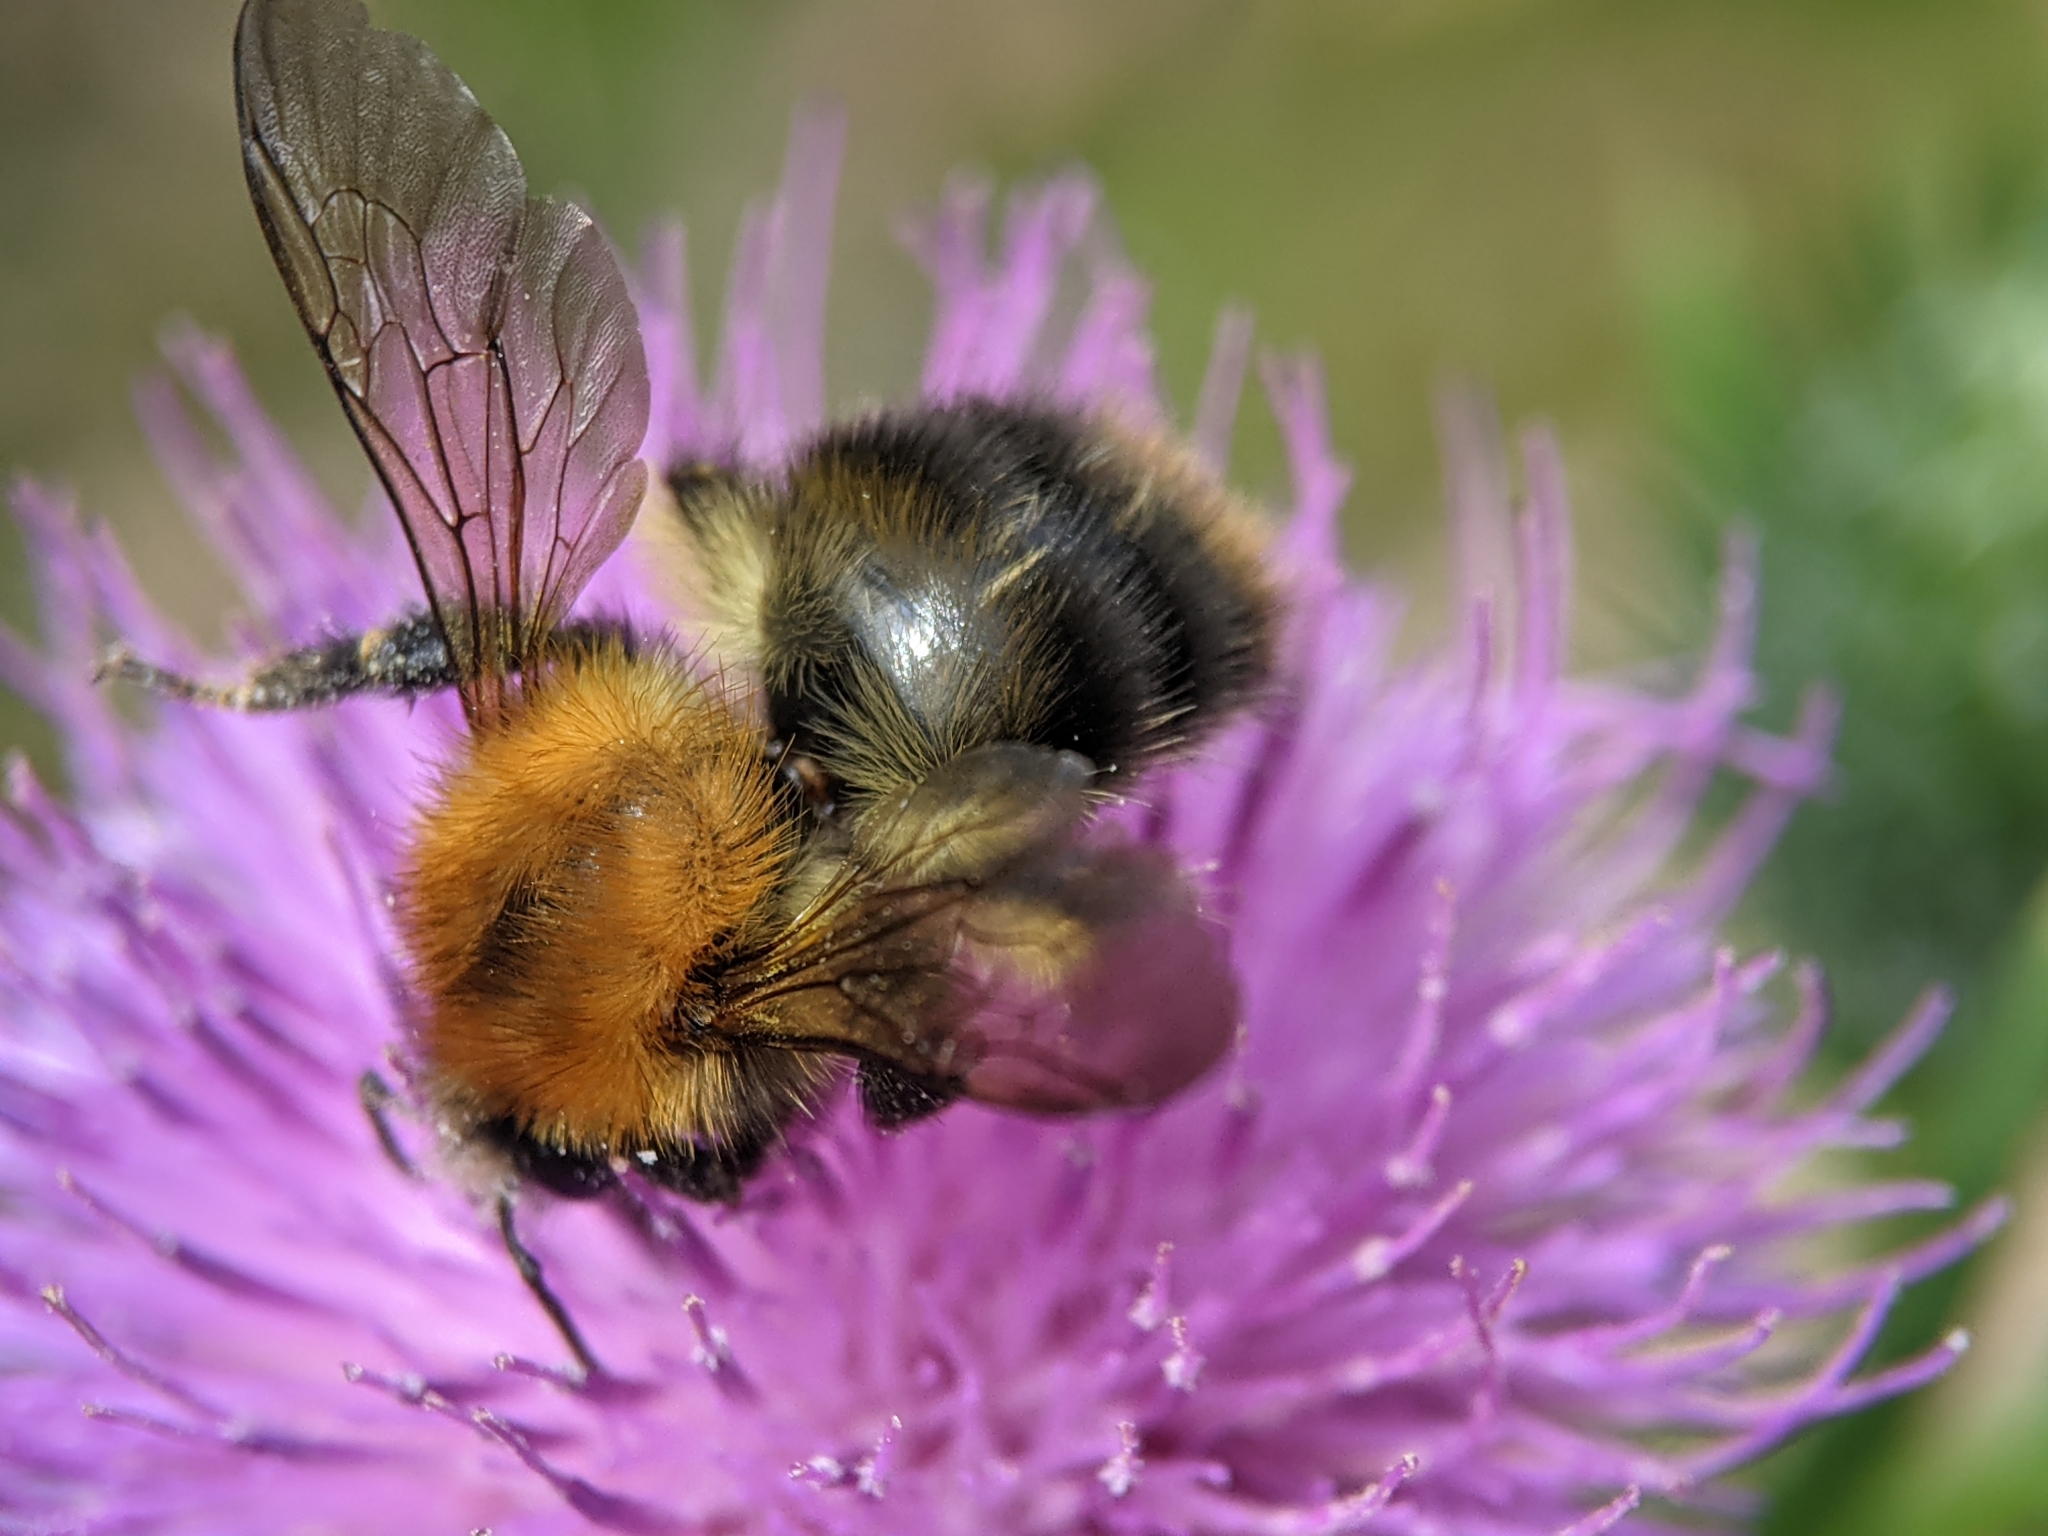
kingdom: Animalia
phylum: Arthropoda
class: Insecta
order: Hymenoptera
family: Apidae
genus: Bombus
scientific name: Bombus pascuorum
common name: Common carder bee
